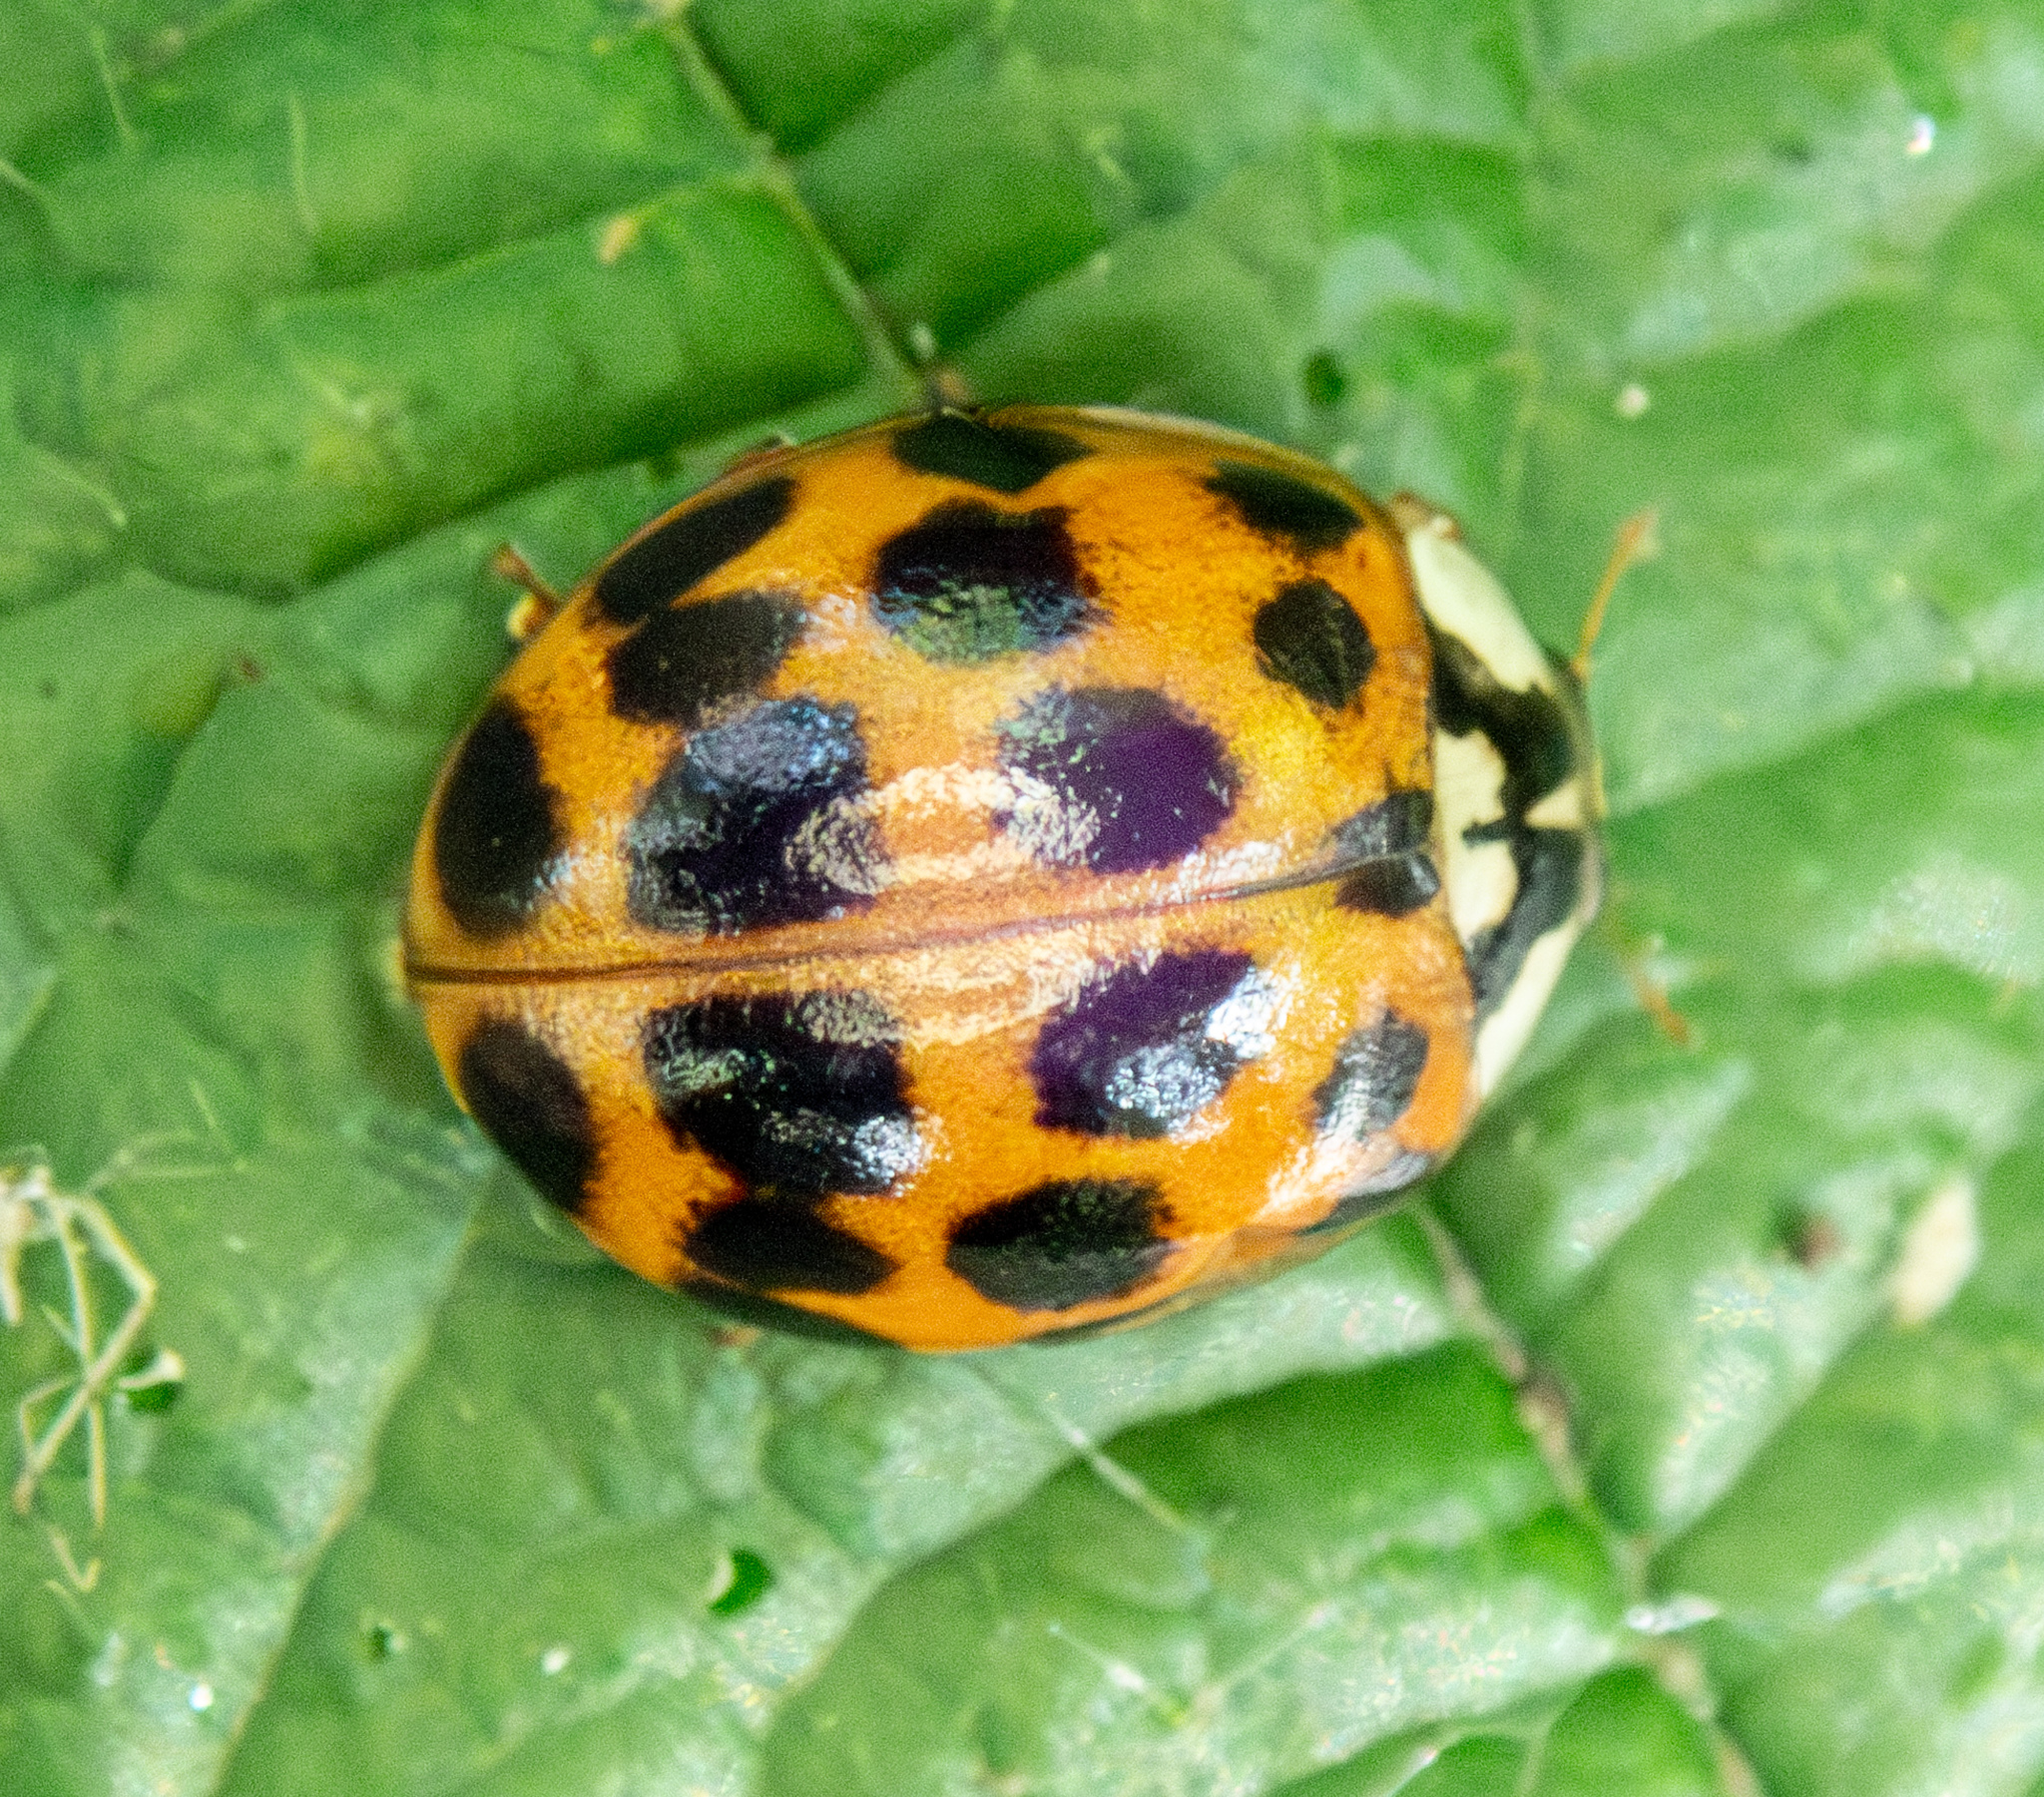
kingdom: Animalia
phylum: Arthropoda
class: Insecta
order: Coleoptera
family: Coccinellidae
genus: Harmonia
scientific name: Harmonia axyridis
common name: Harlequin ladybird
